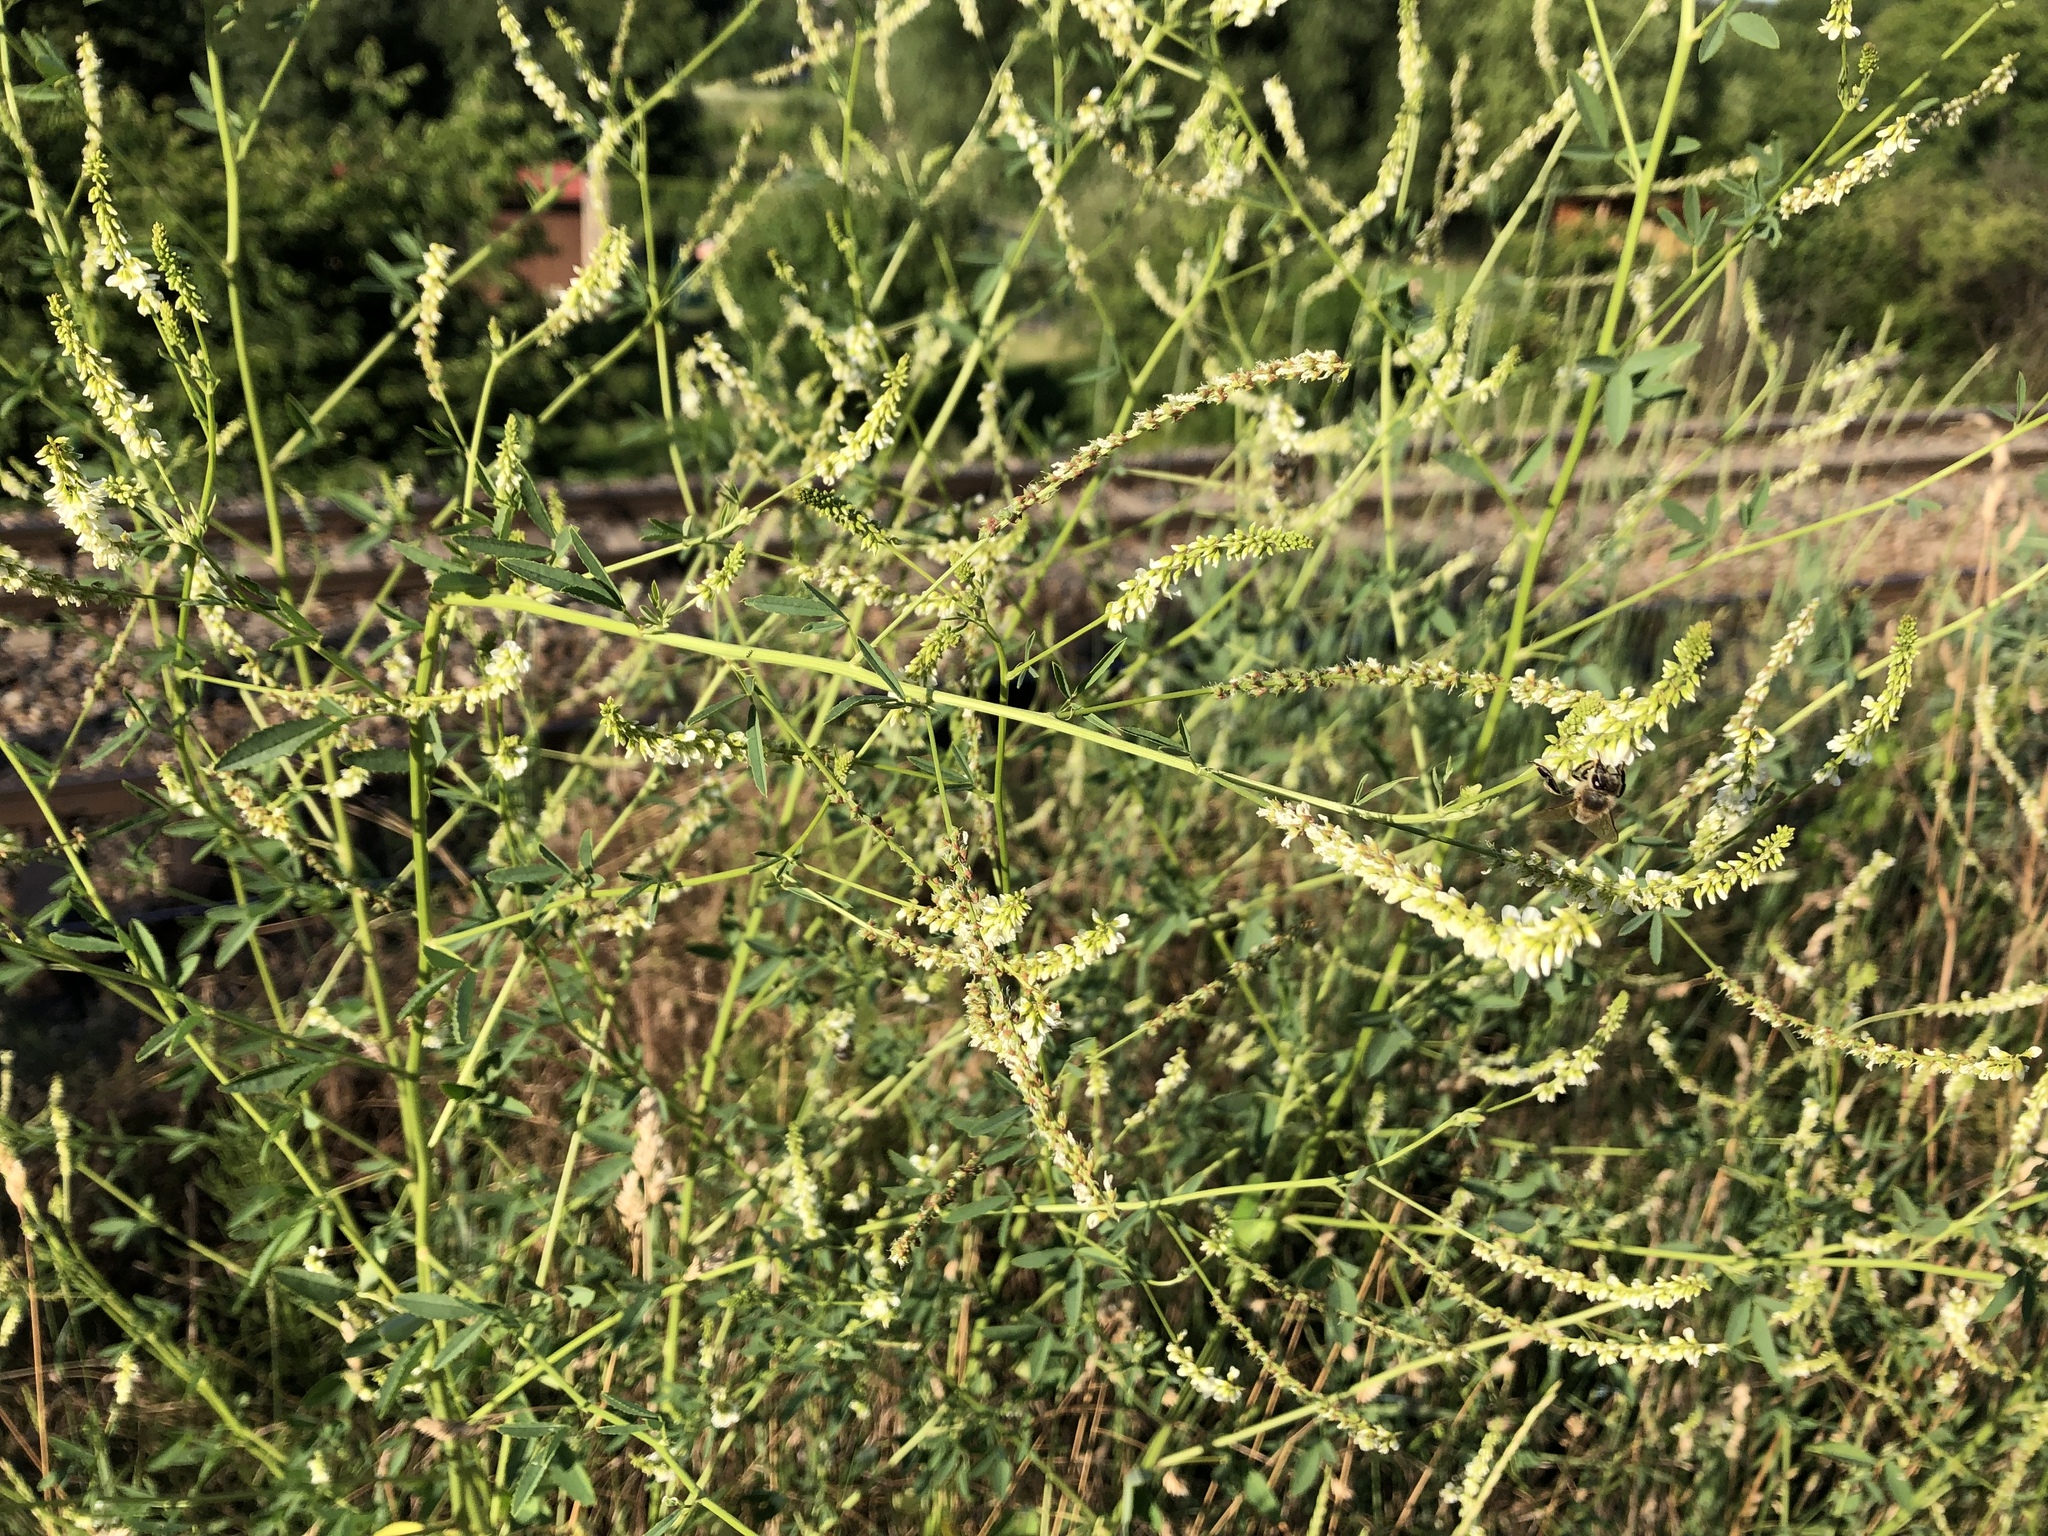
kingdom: Plantae
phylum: Tracheophyta
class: Magnoliopsida
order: Fabales
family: Fabaceae
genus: Melilotus
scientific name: Melilotus albus
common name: White melilot
